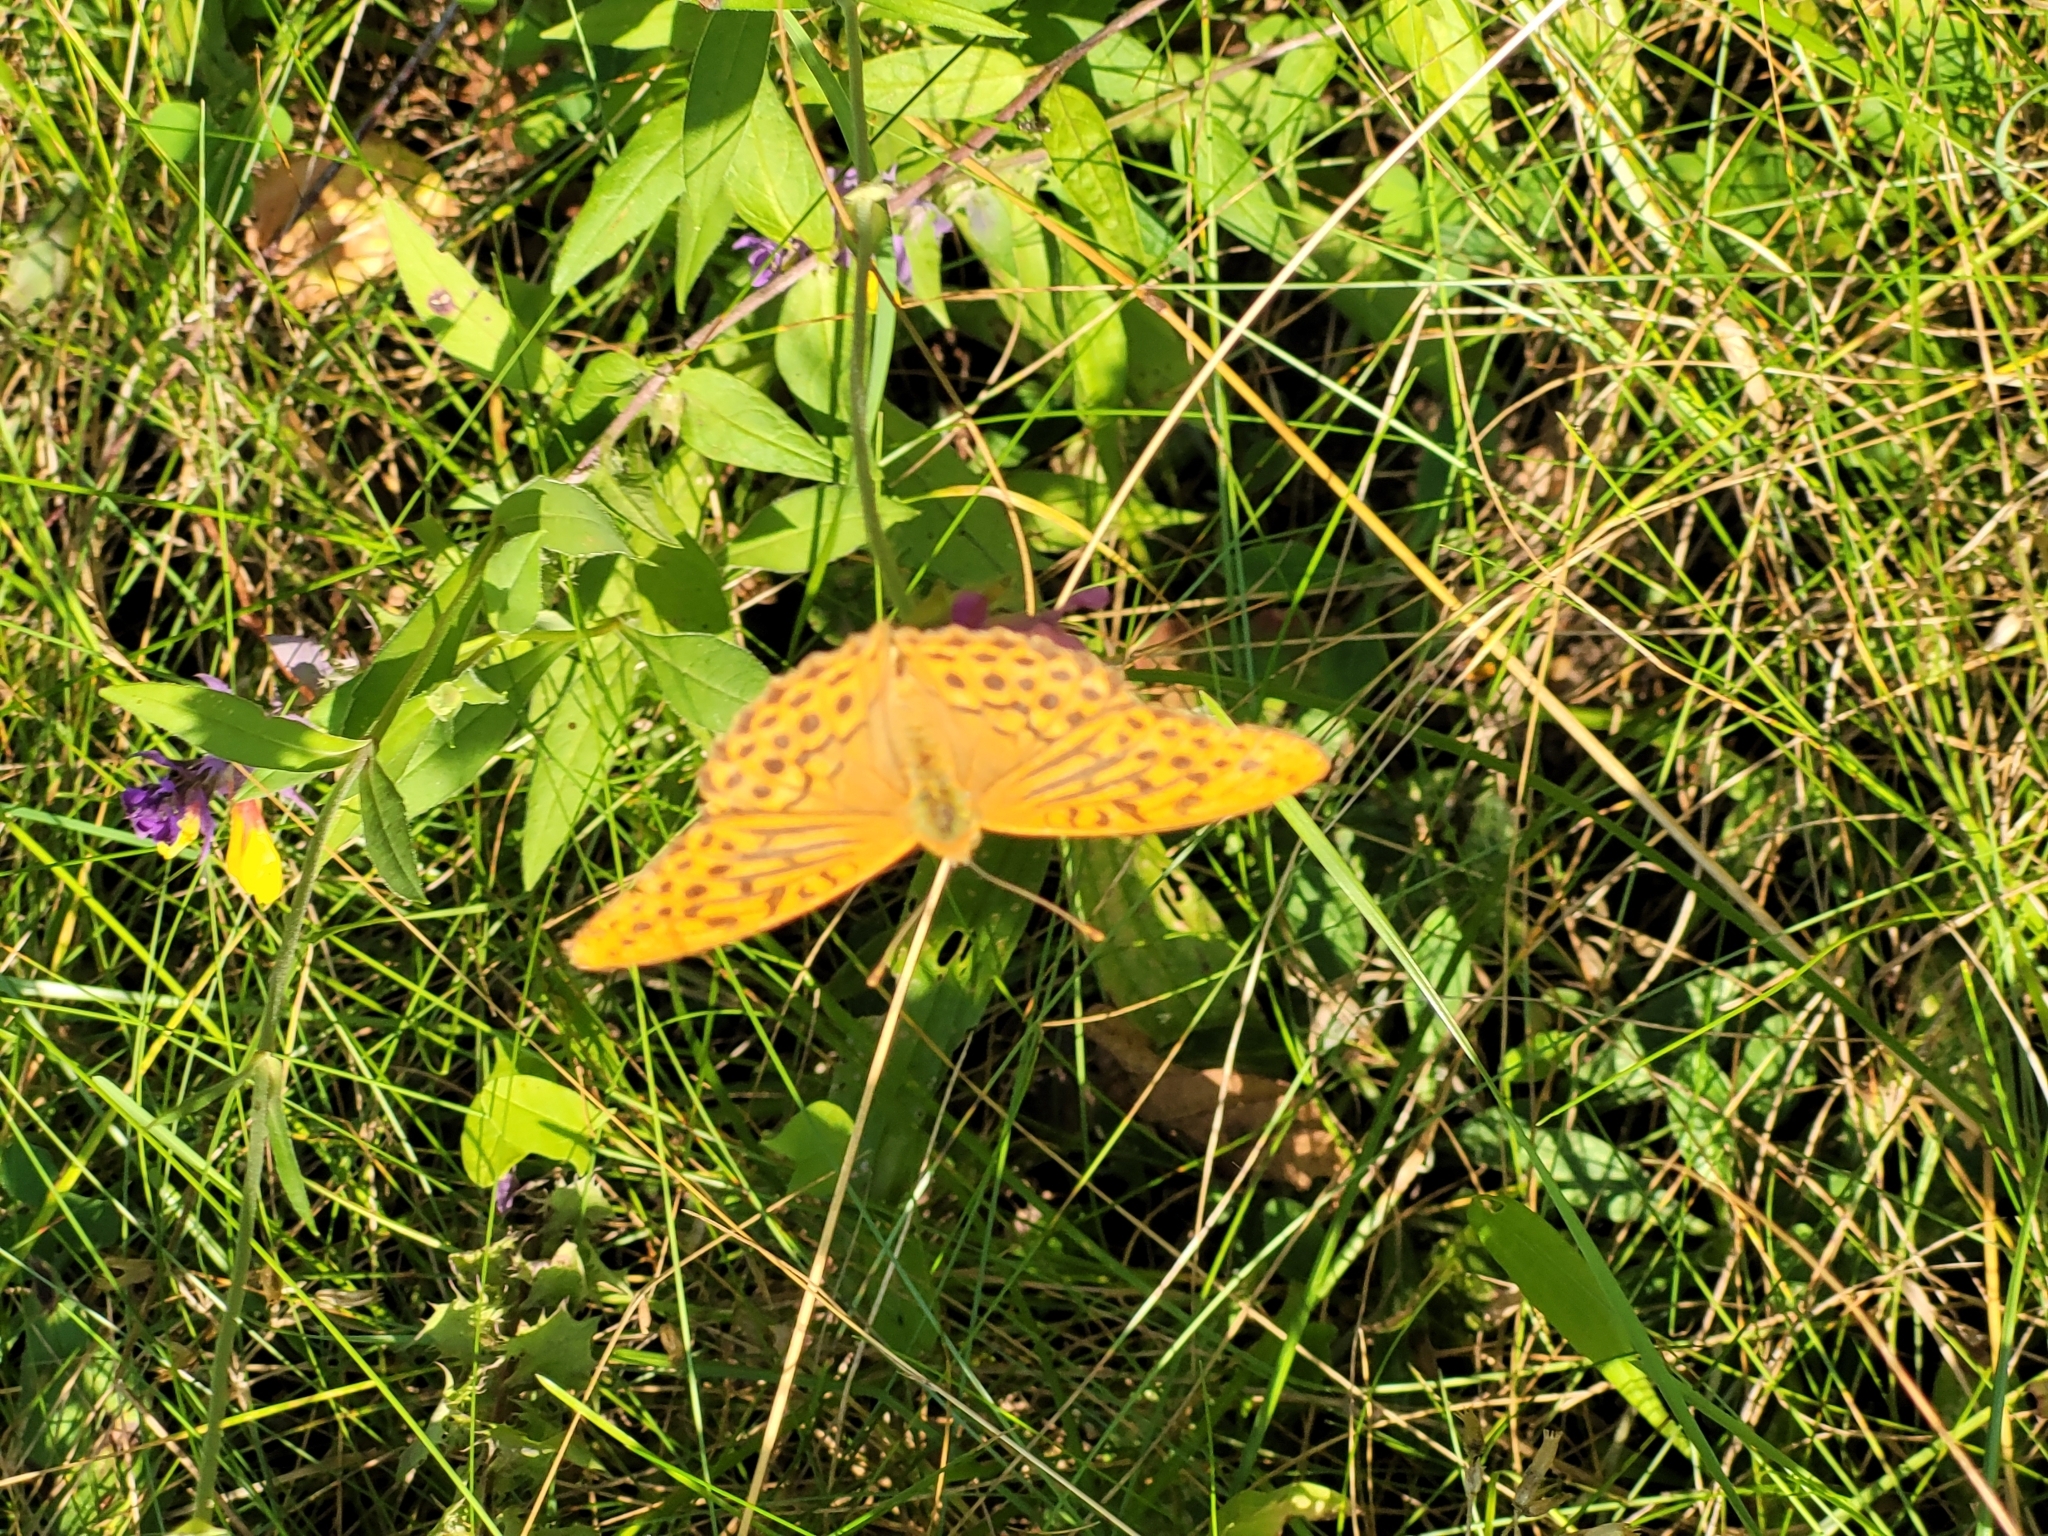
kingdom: Animalia
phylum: Arthropoda
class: Insecta
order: Lepidoptera
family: Nymphalidae
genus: Argynnis
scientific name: Argynnis paphia
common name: Silver-washed fritillary
